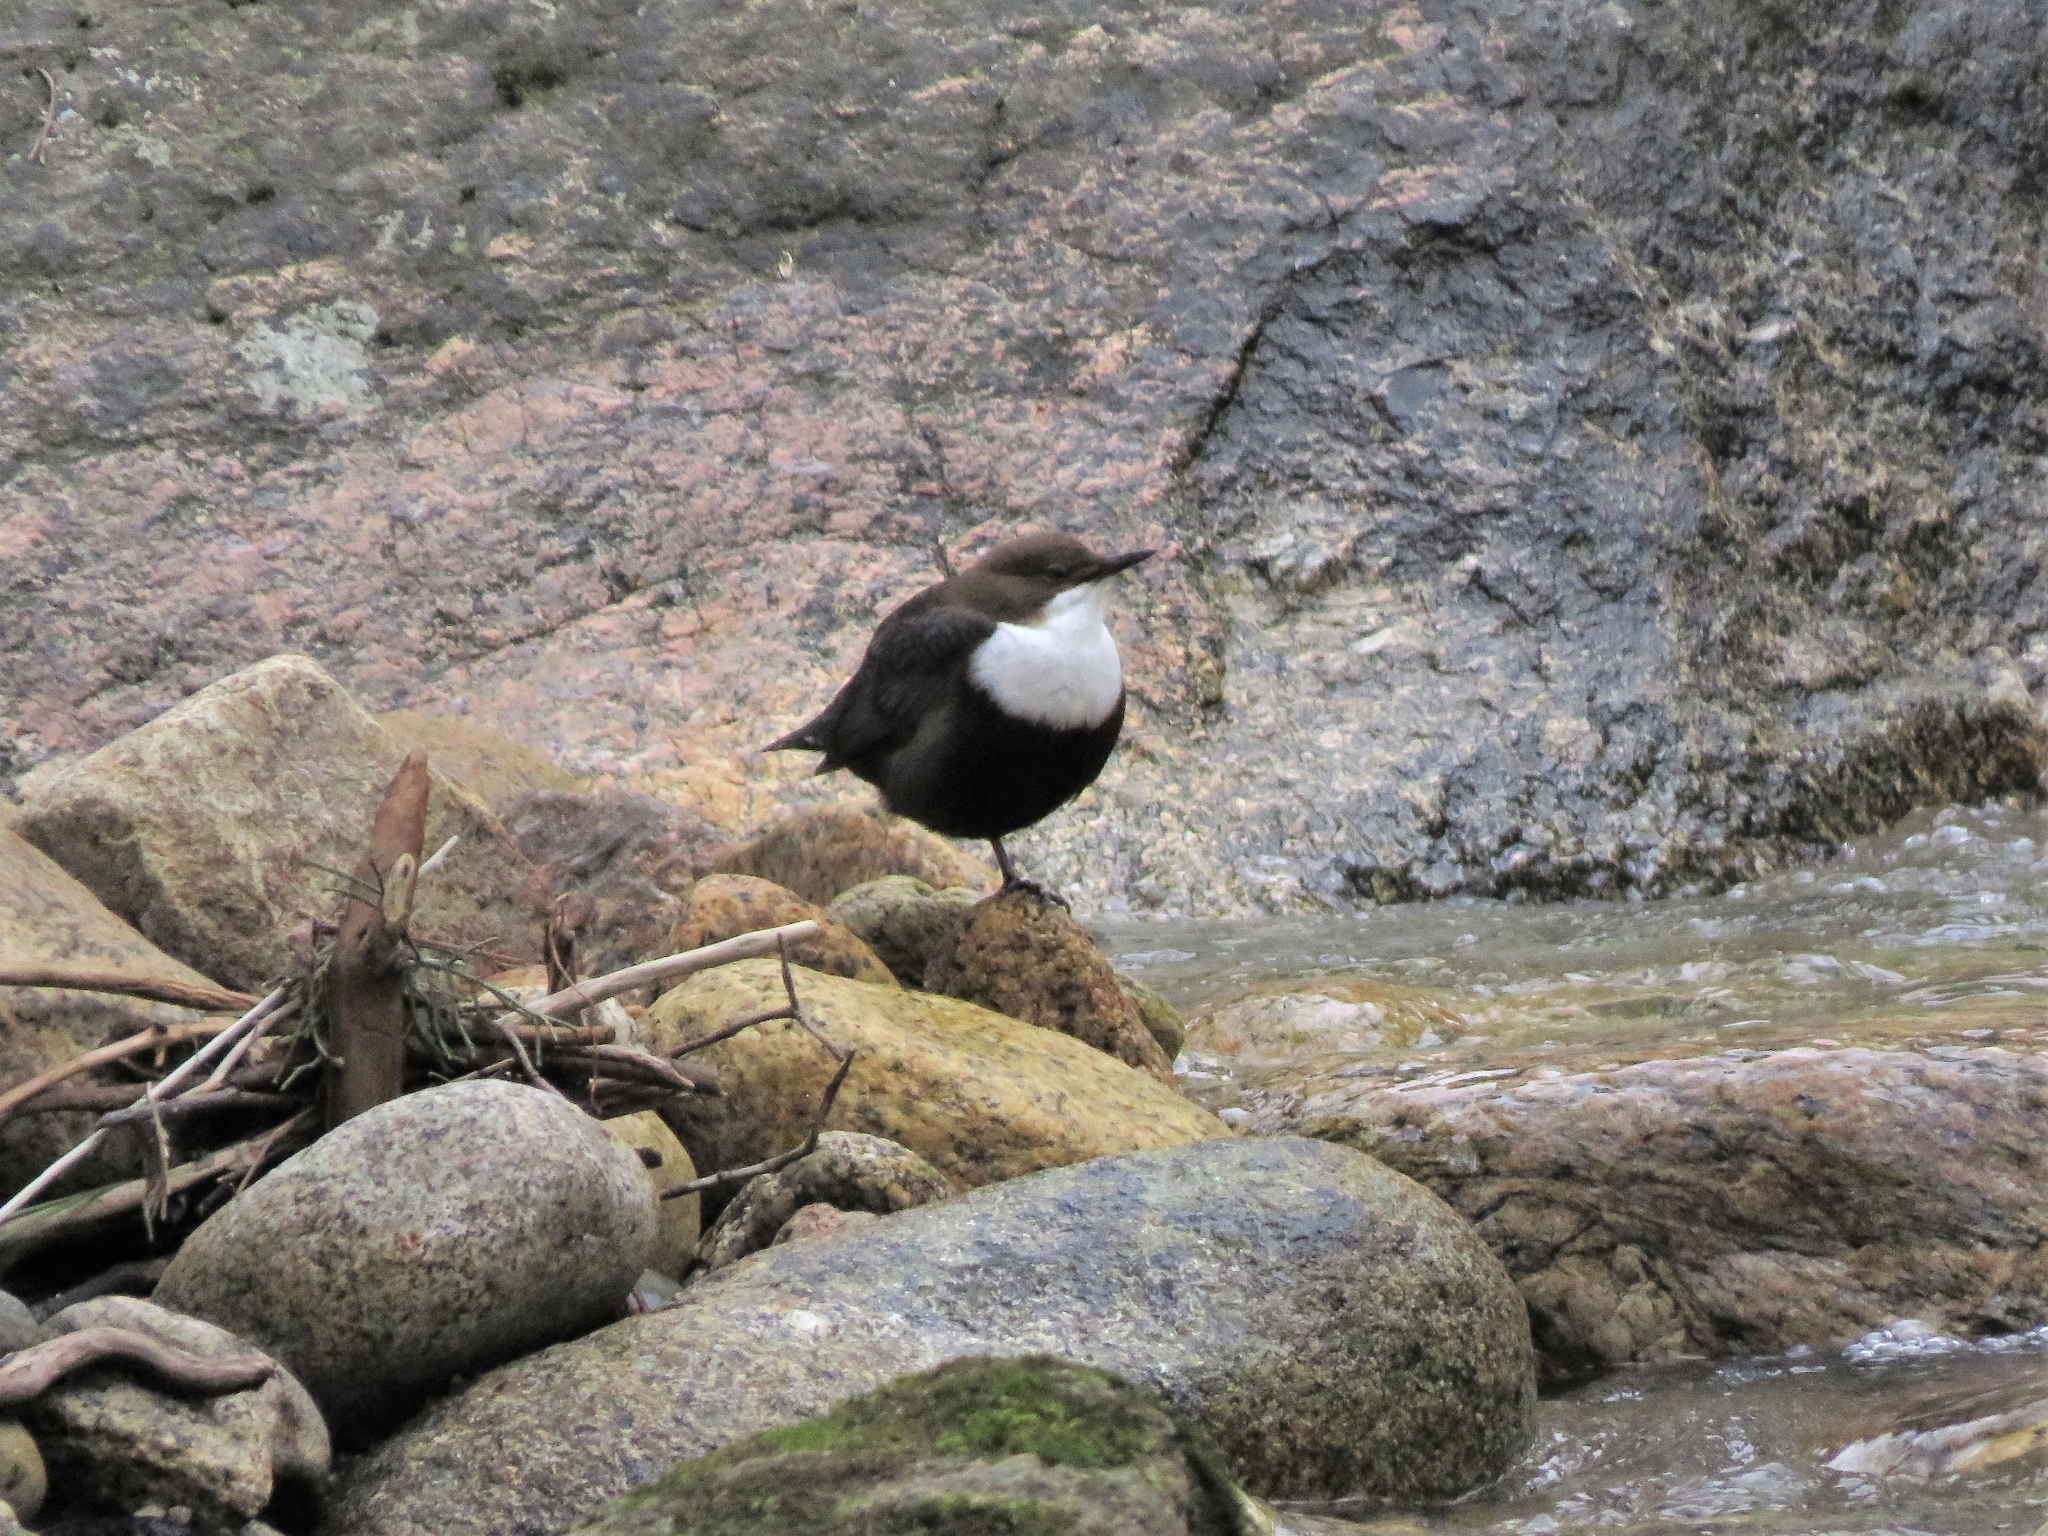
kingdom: Animalia
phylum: Chordata
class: Aves
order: Passeriformes
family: Cinclidae
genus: Cinclus
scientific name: Cinclus cinclus
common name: White-throated dipper
